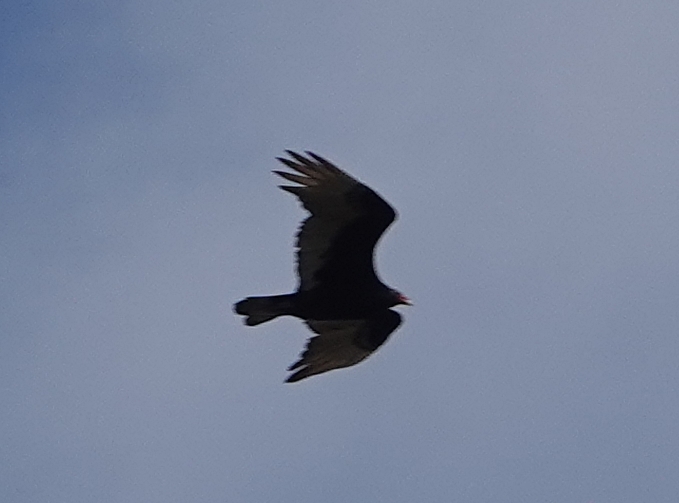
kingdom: Animalia
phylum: Chordata
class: Aves
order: Accipitriformes
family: Cathartidae
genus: Cathartes
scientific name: Cathartes aura
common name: Turkey vulture
